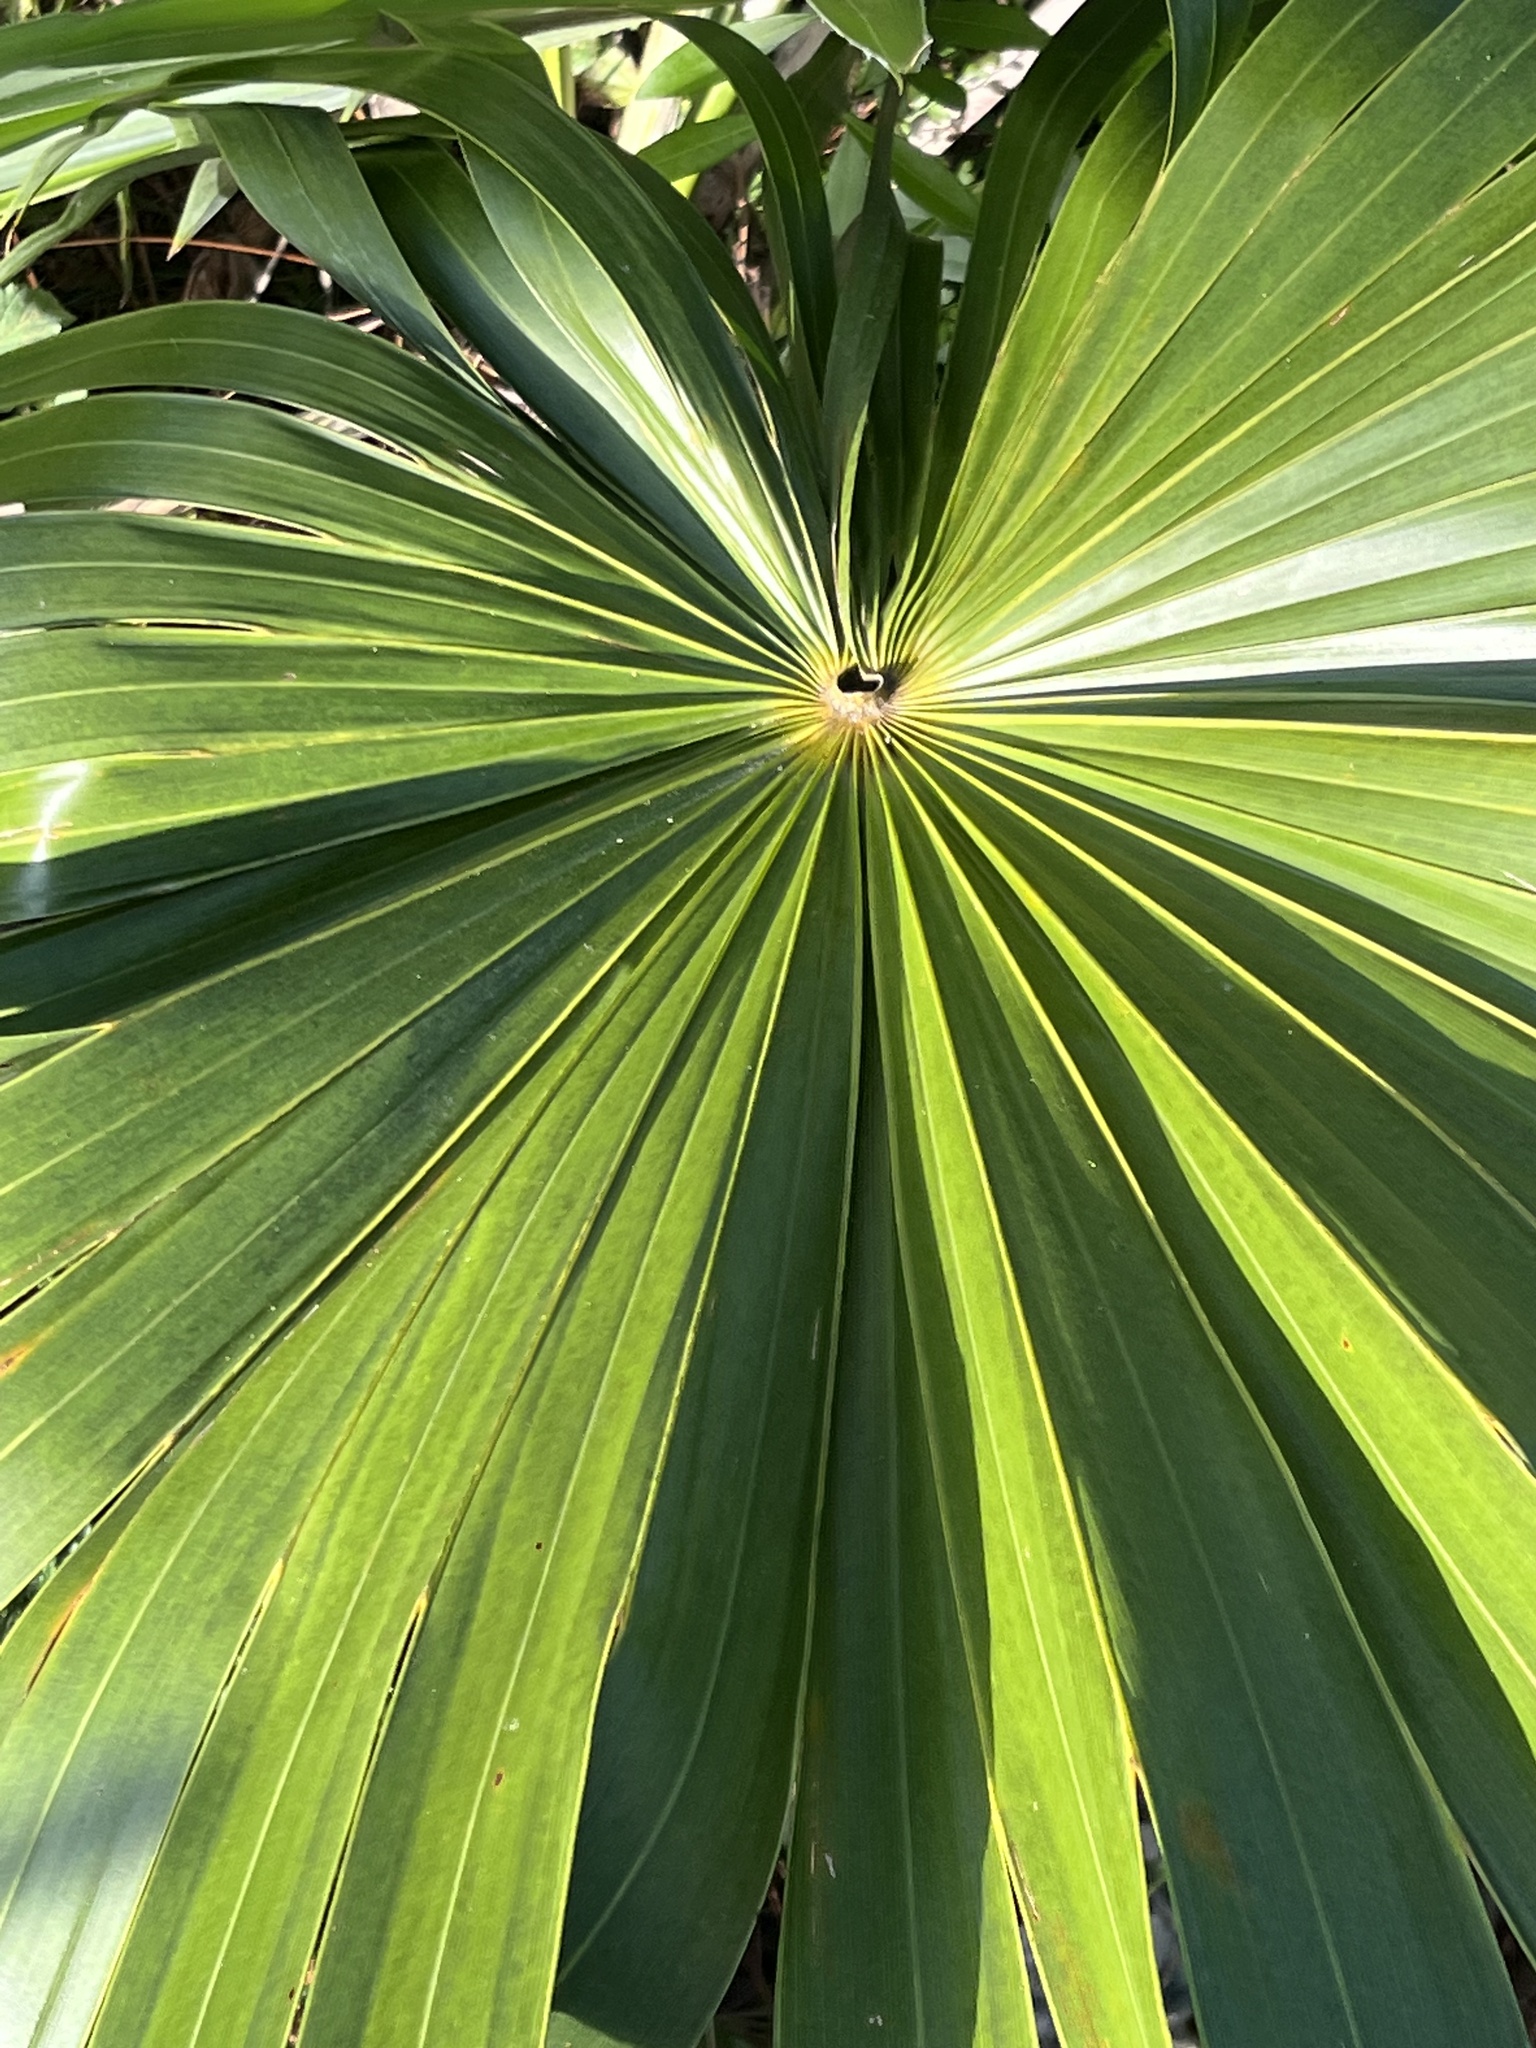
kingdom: Plantae
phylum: Tracheophyta
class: Liliopsida
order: Arecales
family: Arecaceae
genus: Thrinax
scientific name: Thrinax radiata
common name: Florida thatch
